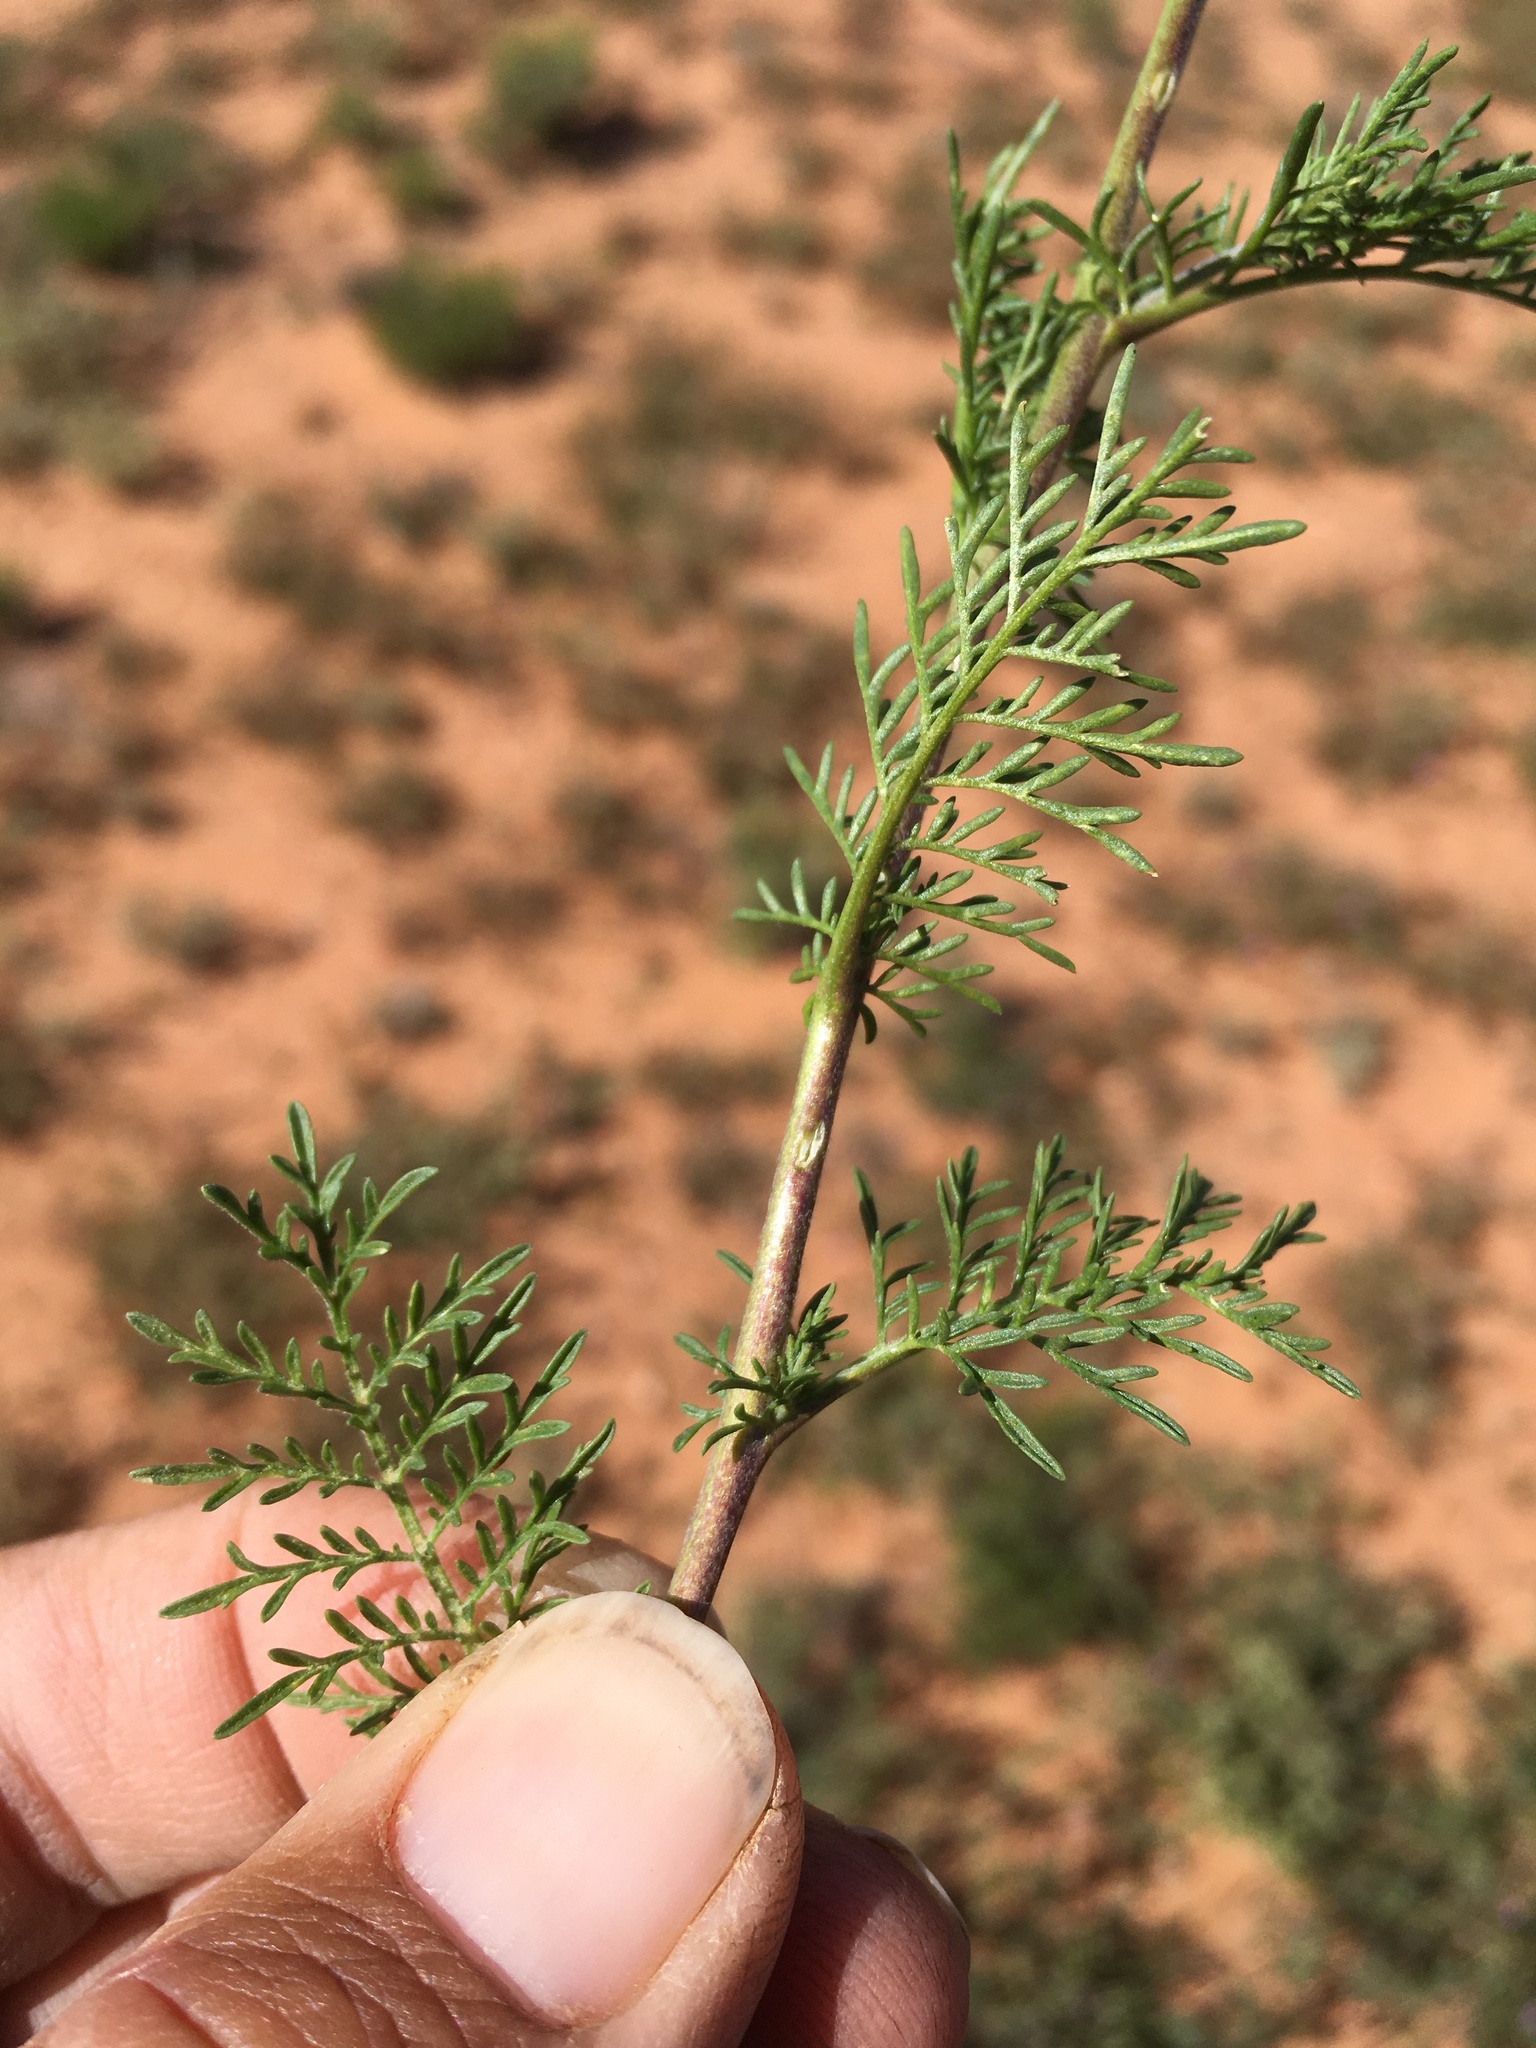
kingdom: Plantae
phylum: Tracheophyta
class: Magnoliopsida
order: Brassicales
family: Brassicaceae
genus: Descurainia
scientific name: Descurainia sophia
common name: Flixweed
